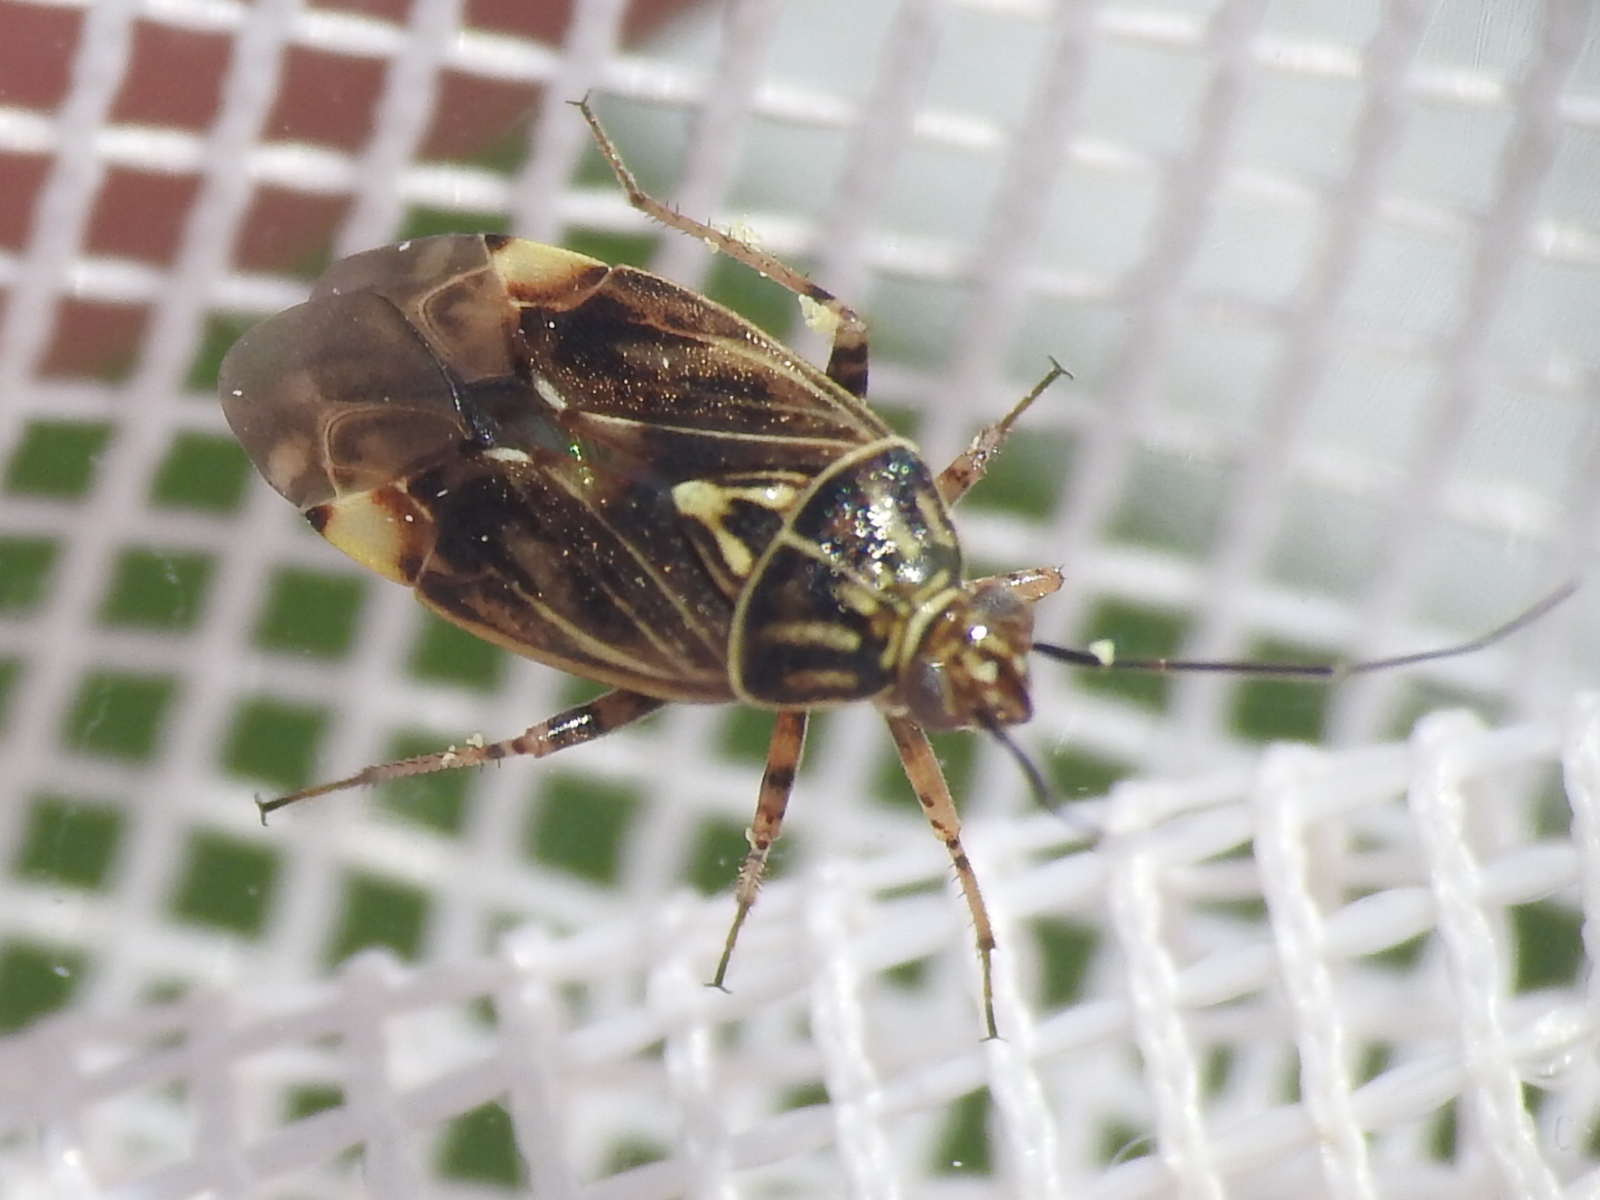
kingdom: Animalia
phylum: Arthropoda
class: Insecta
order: Hemiptera
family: Miridae
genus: Lygus
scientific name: Lygus lineolaris
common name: North american tarnished plant bug
